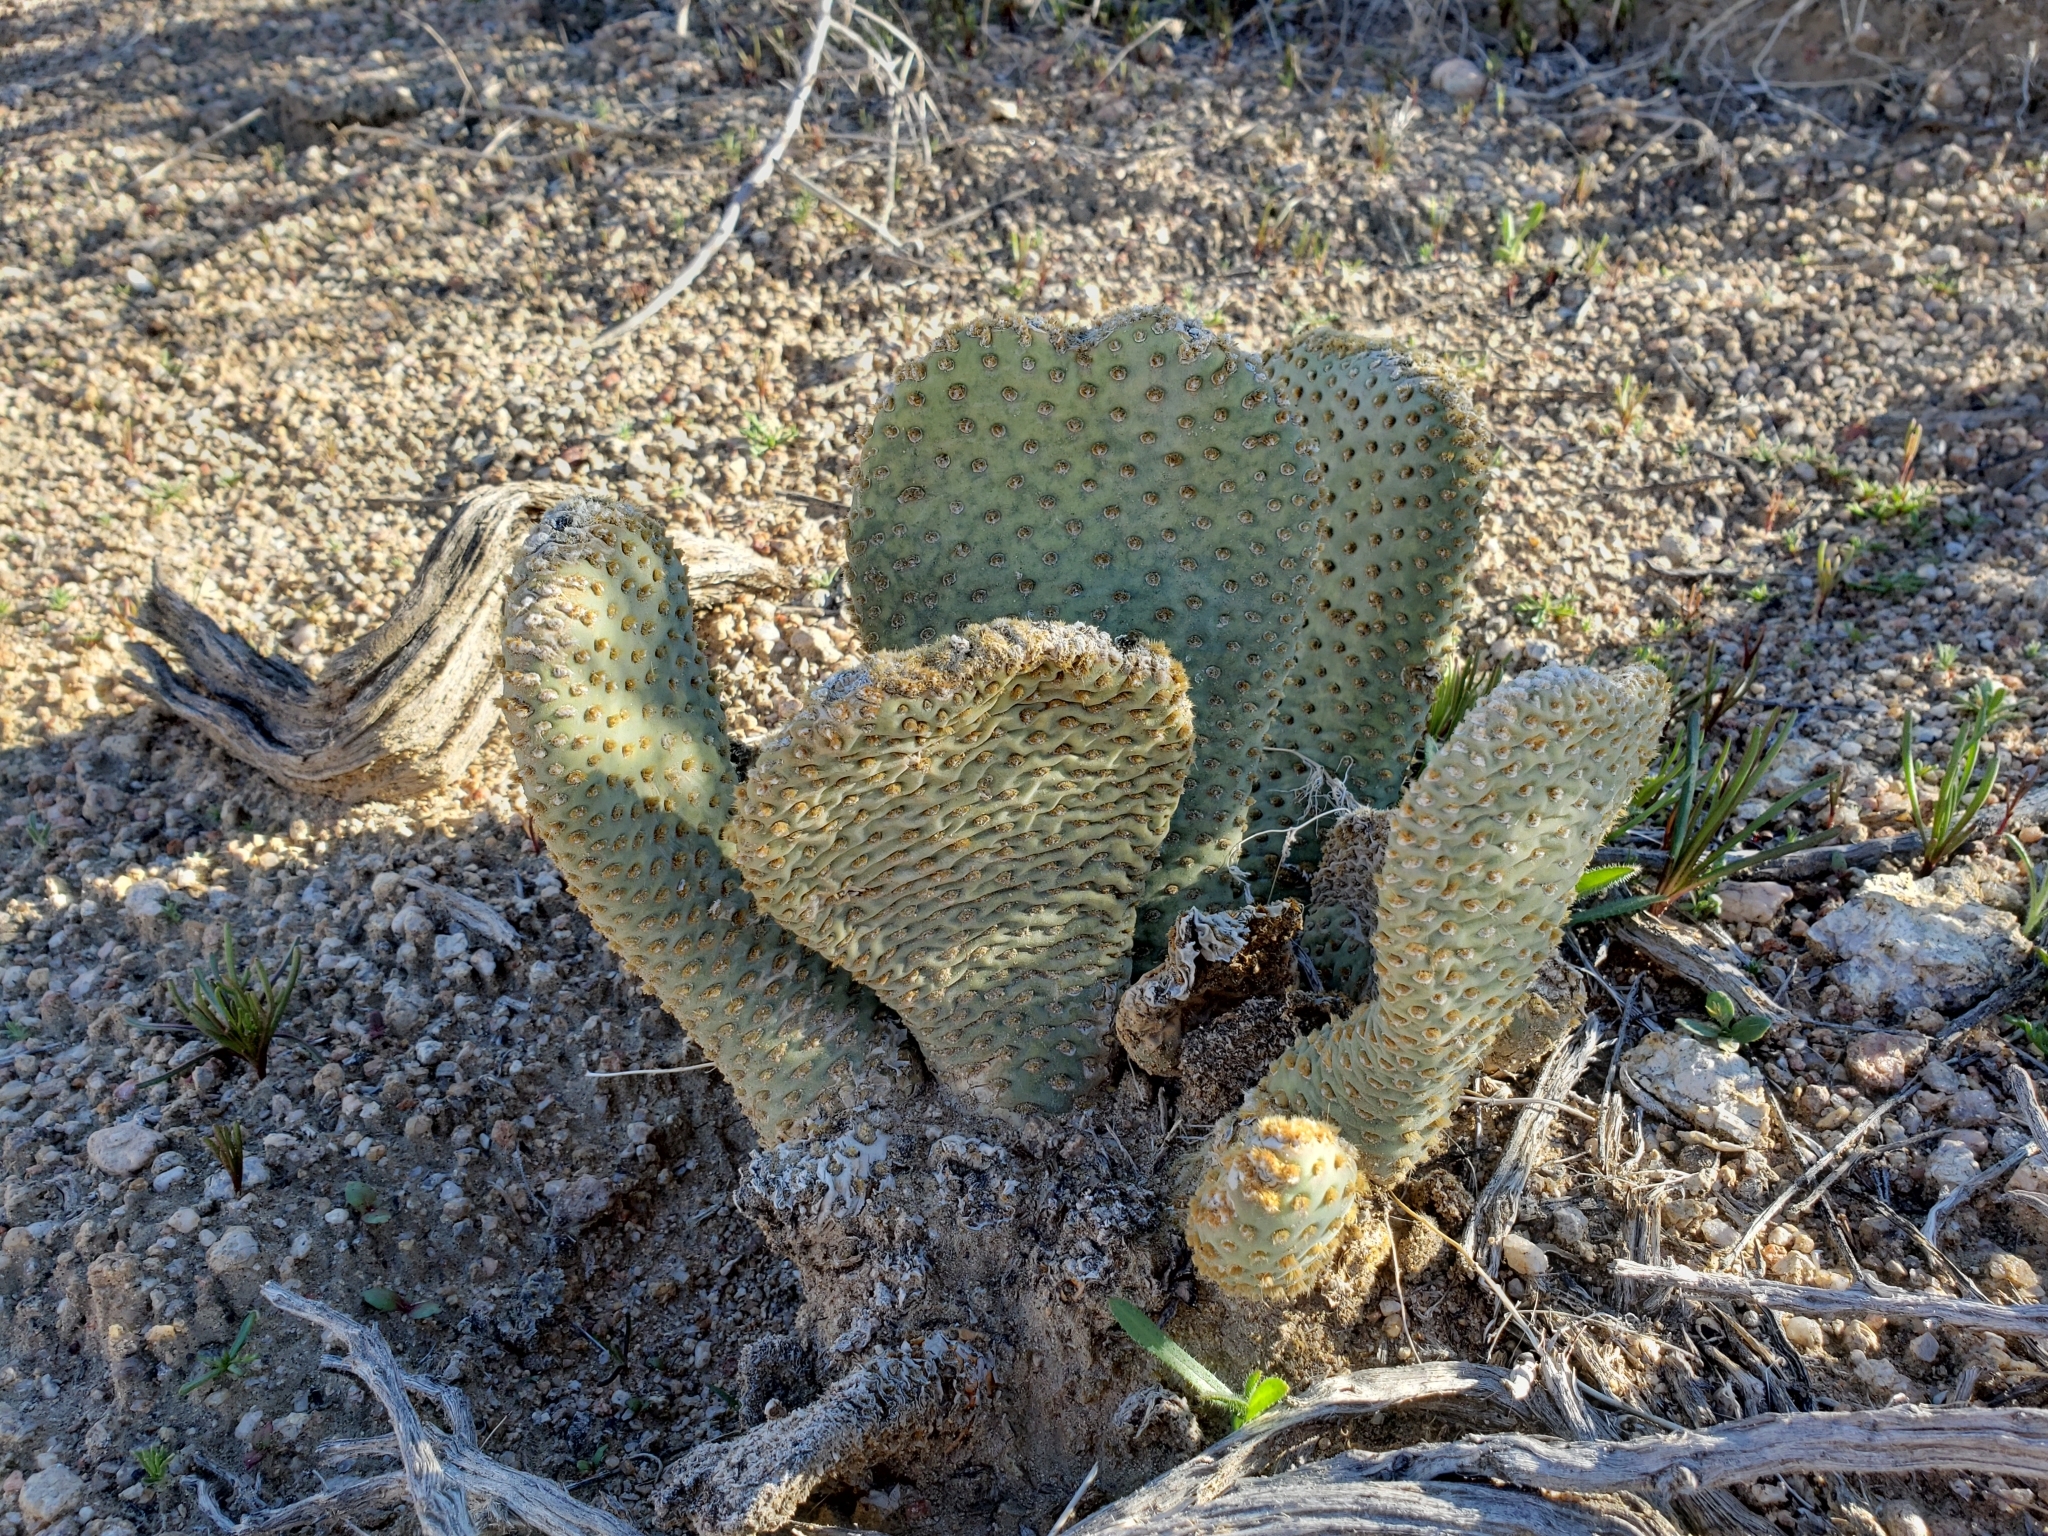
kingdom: Plantae
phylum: Tracheophyta
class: Magnoliopsida
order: Caryophyllales
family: Cactaceae
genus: Opuntia
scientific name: Opuntia basilaris
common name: Beavertail prickly-pear
